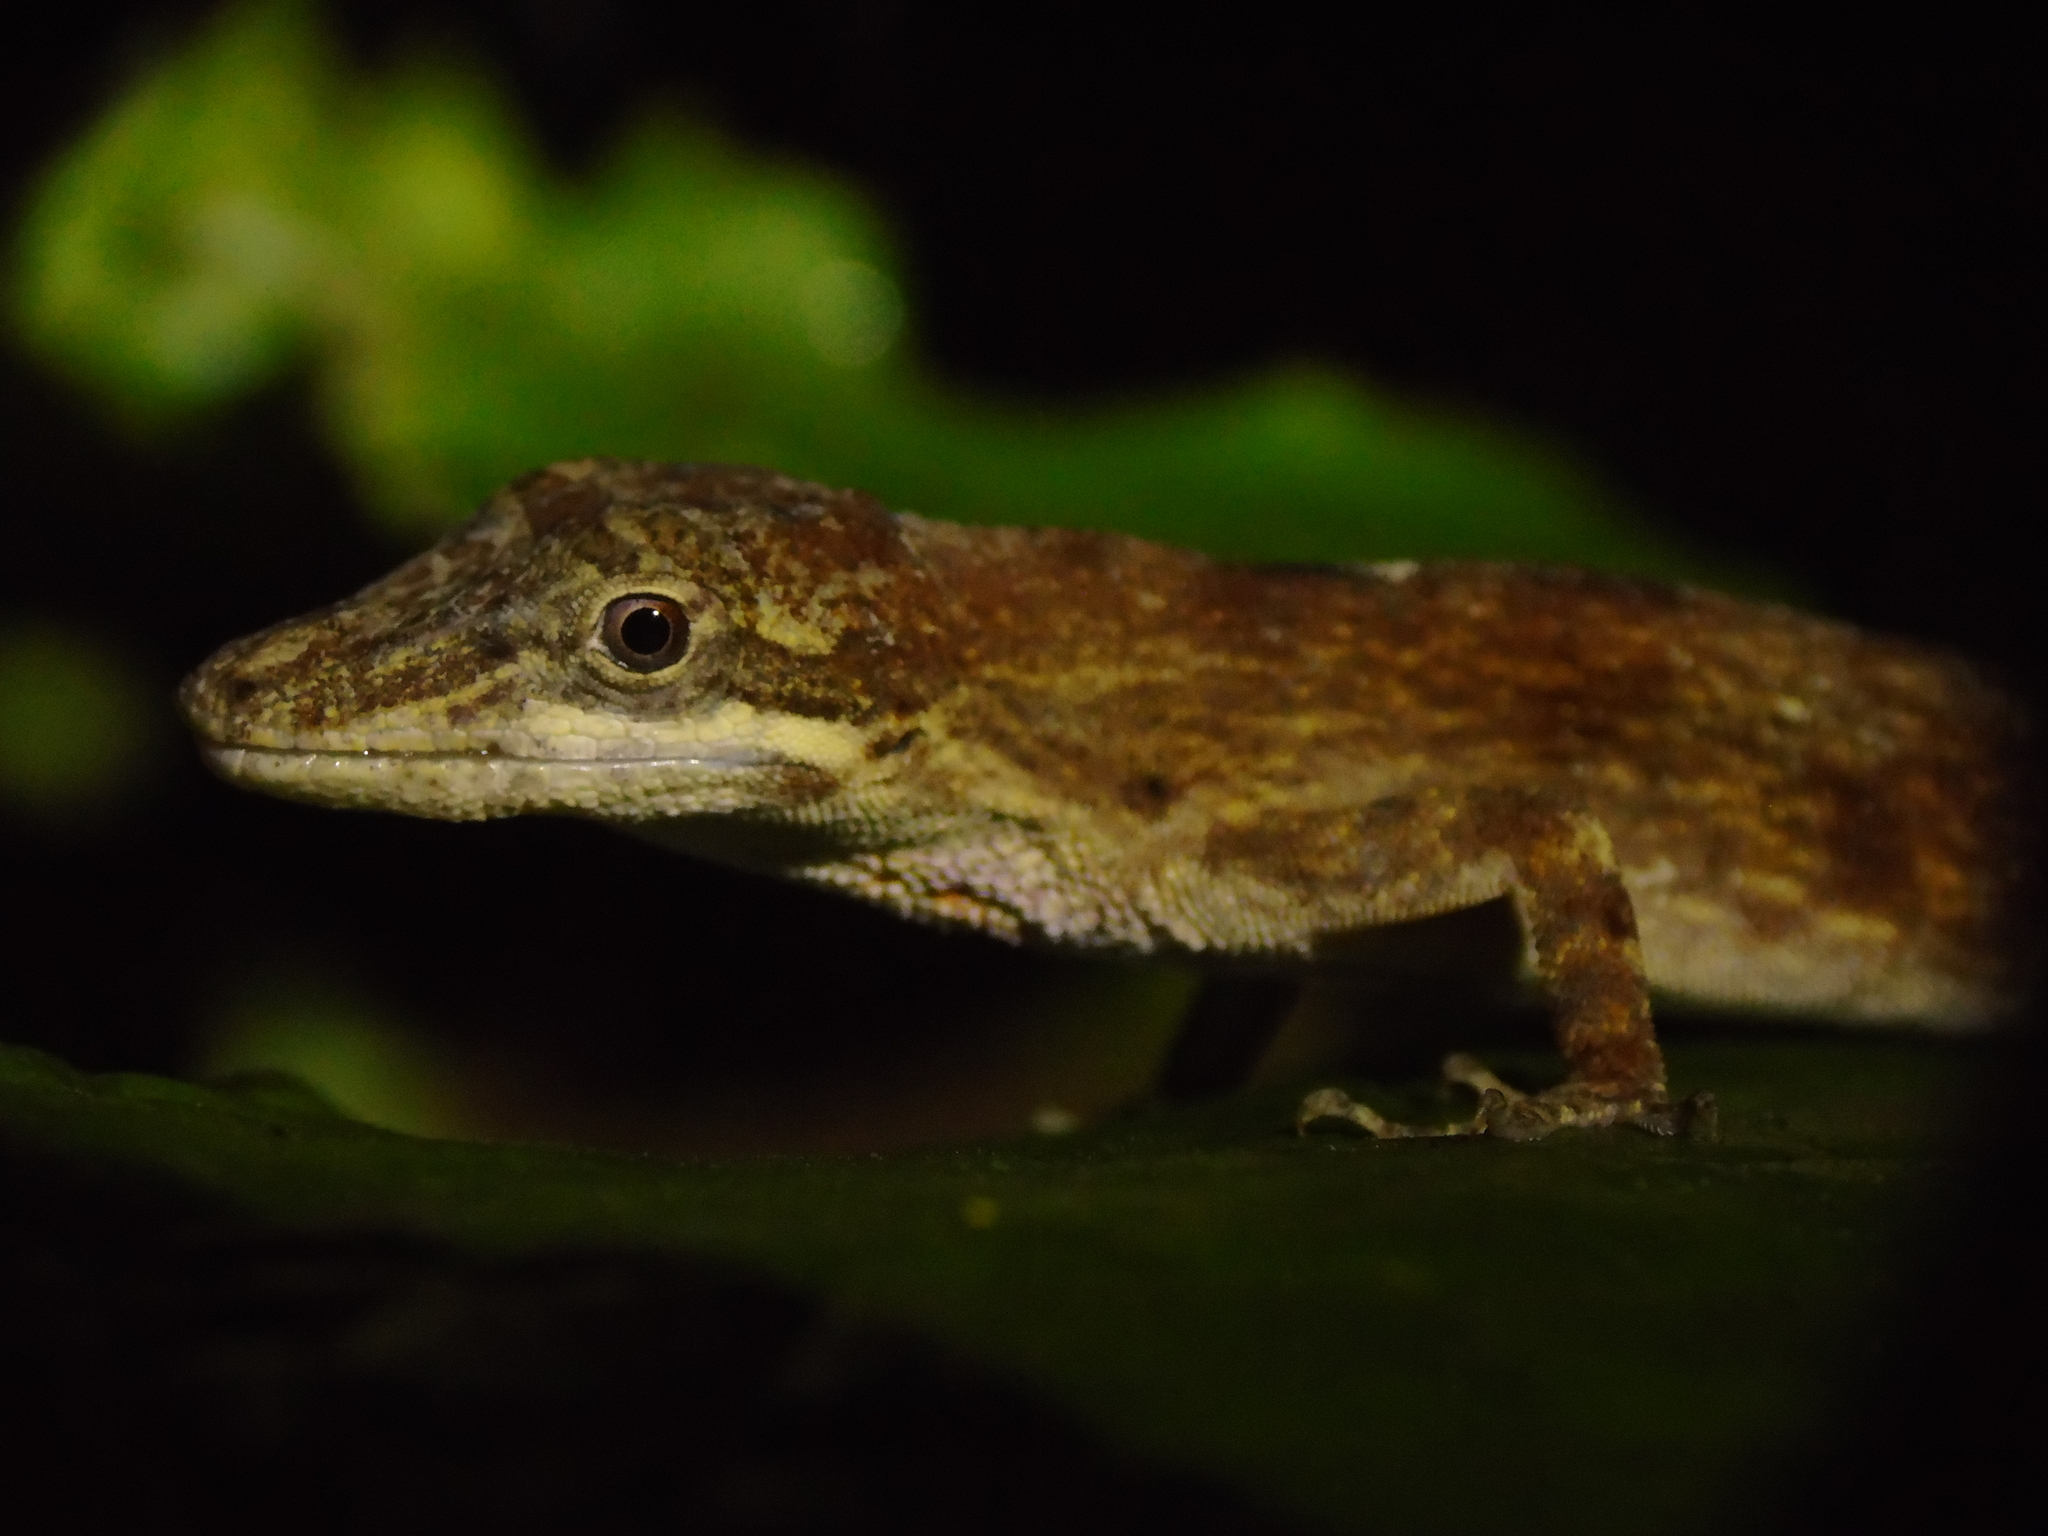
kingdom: Animalia
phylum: Chordata
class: Squamata
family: Dactyloidae
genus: Anolis
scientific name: Anolis kemptoni
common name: Kempton's anole
